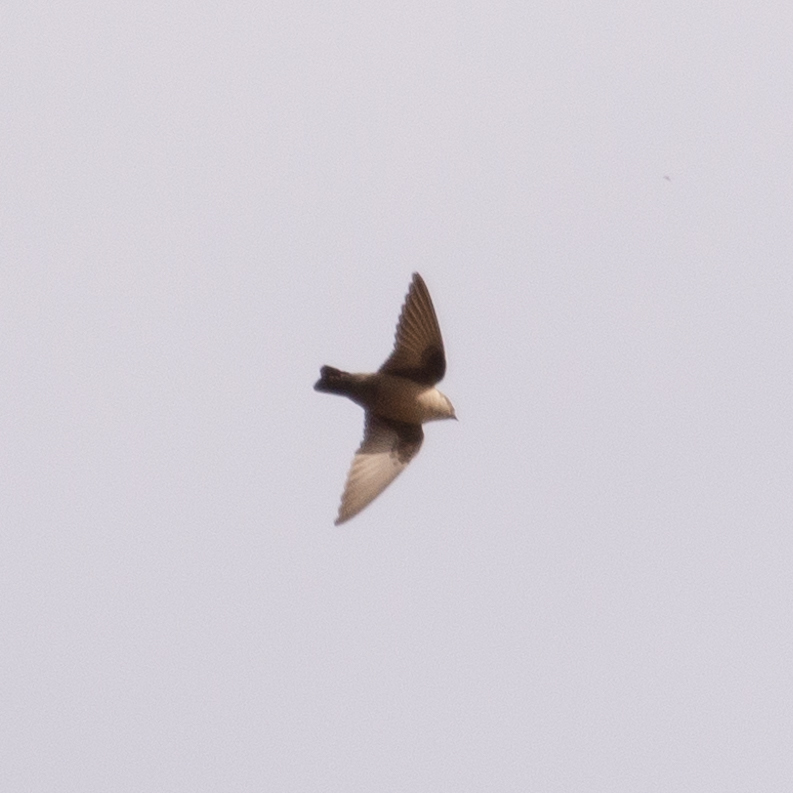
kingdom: Animalia
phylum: Chordata
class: Aves
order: Passeriformes
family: Hirundinidae
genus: Ptyonoprogne
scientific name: Ptyonoprogne rupestris
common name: Eurasian crag martin
